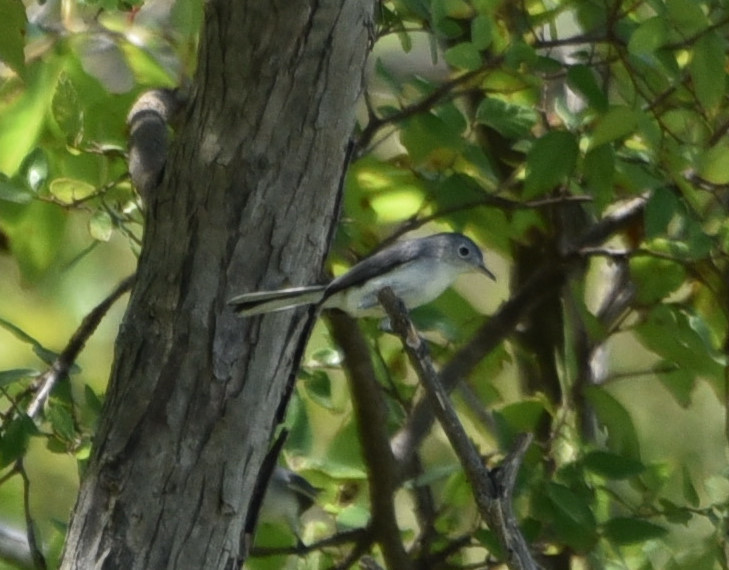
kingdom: Animalia
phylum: Chordata
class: Aves
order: Passeriformes
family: Polioptilidae
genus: Polioptila
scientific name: Polioptila caerulea
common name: Blue-gray gnatcatcher
